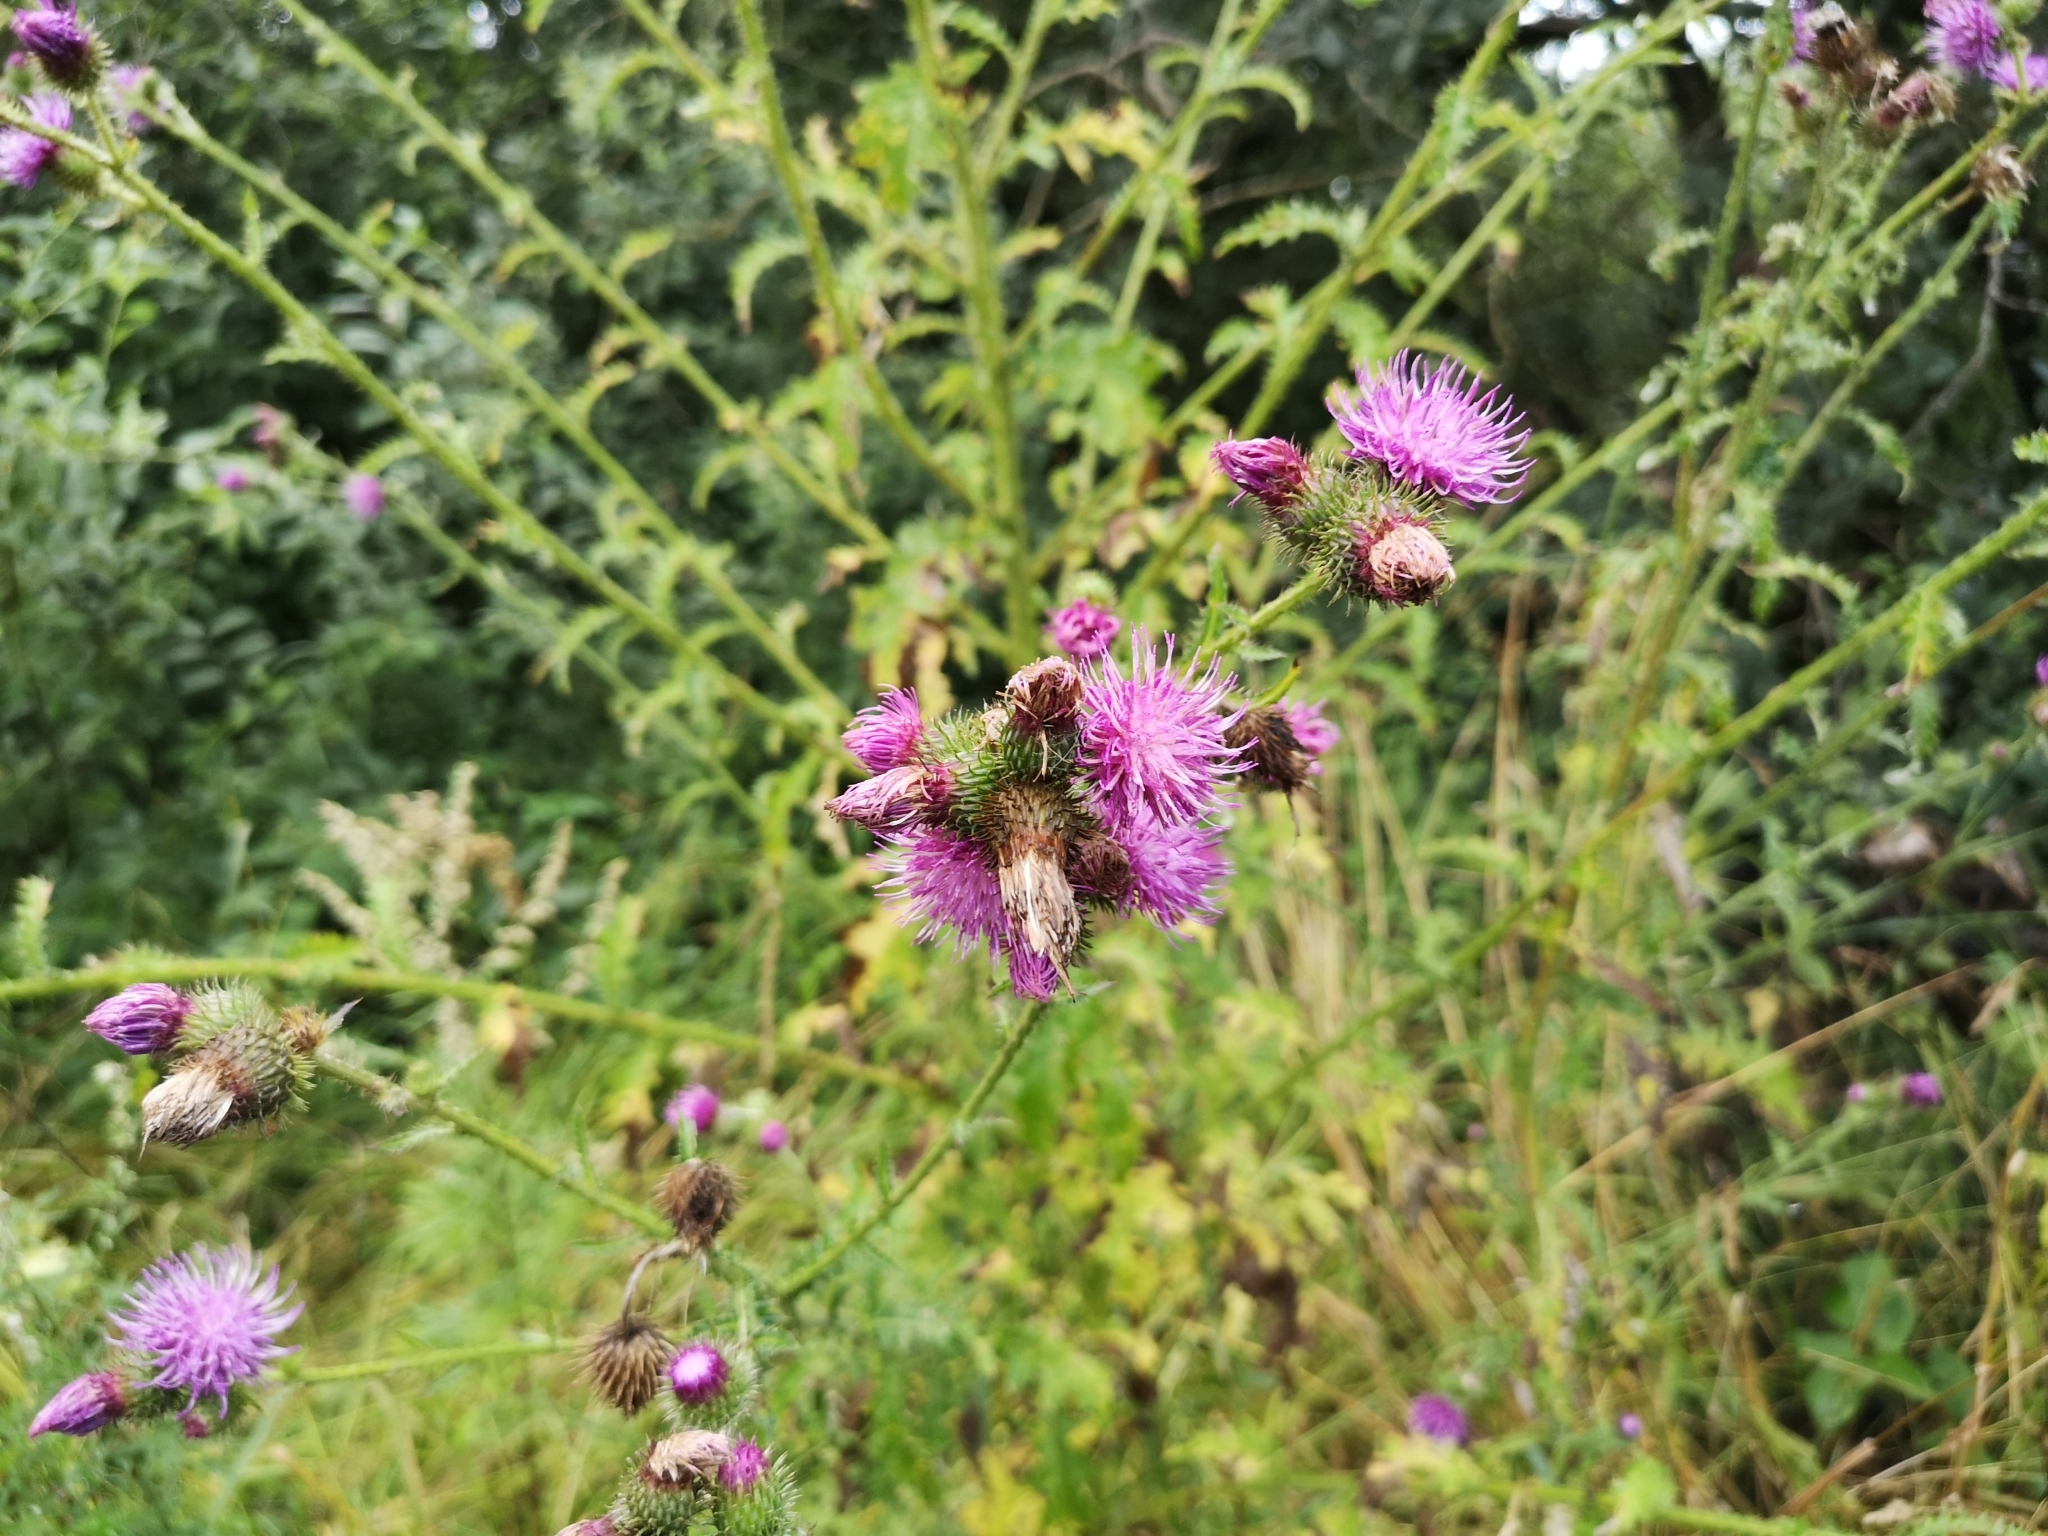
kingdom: Plantae
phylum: Tracheophyta
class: Magnoliopsida
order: Asterales
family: Asteraceae
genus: Carduus
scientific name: Carduus crispus
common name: Welted thistle
